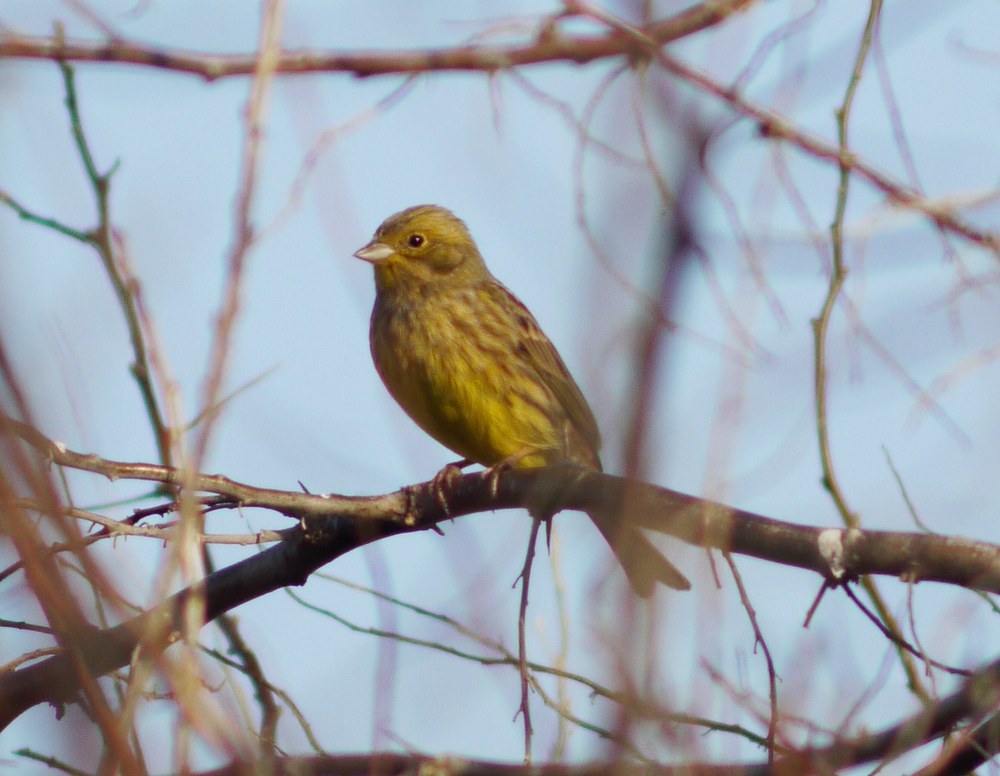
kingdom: Animalia
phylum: Chordata
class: Aves
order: Passeriformes
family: Emberizidae
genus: Emberiza
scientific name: Emberiza citrinella
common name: Yellowhammer
